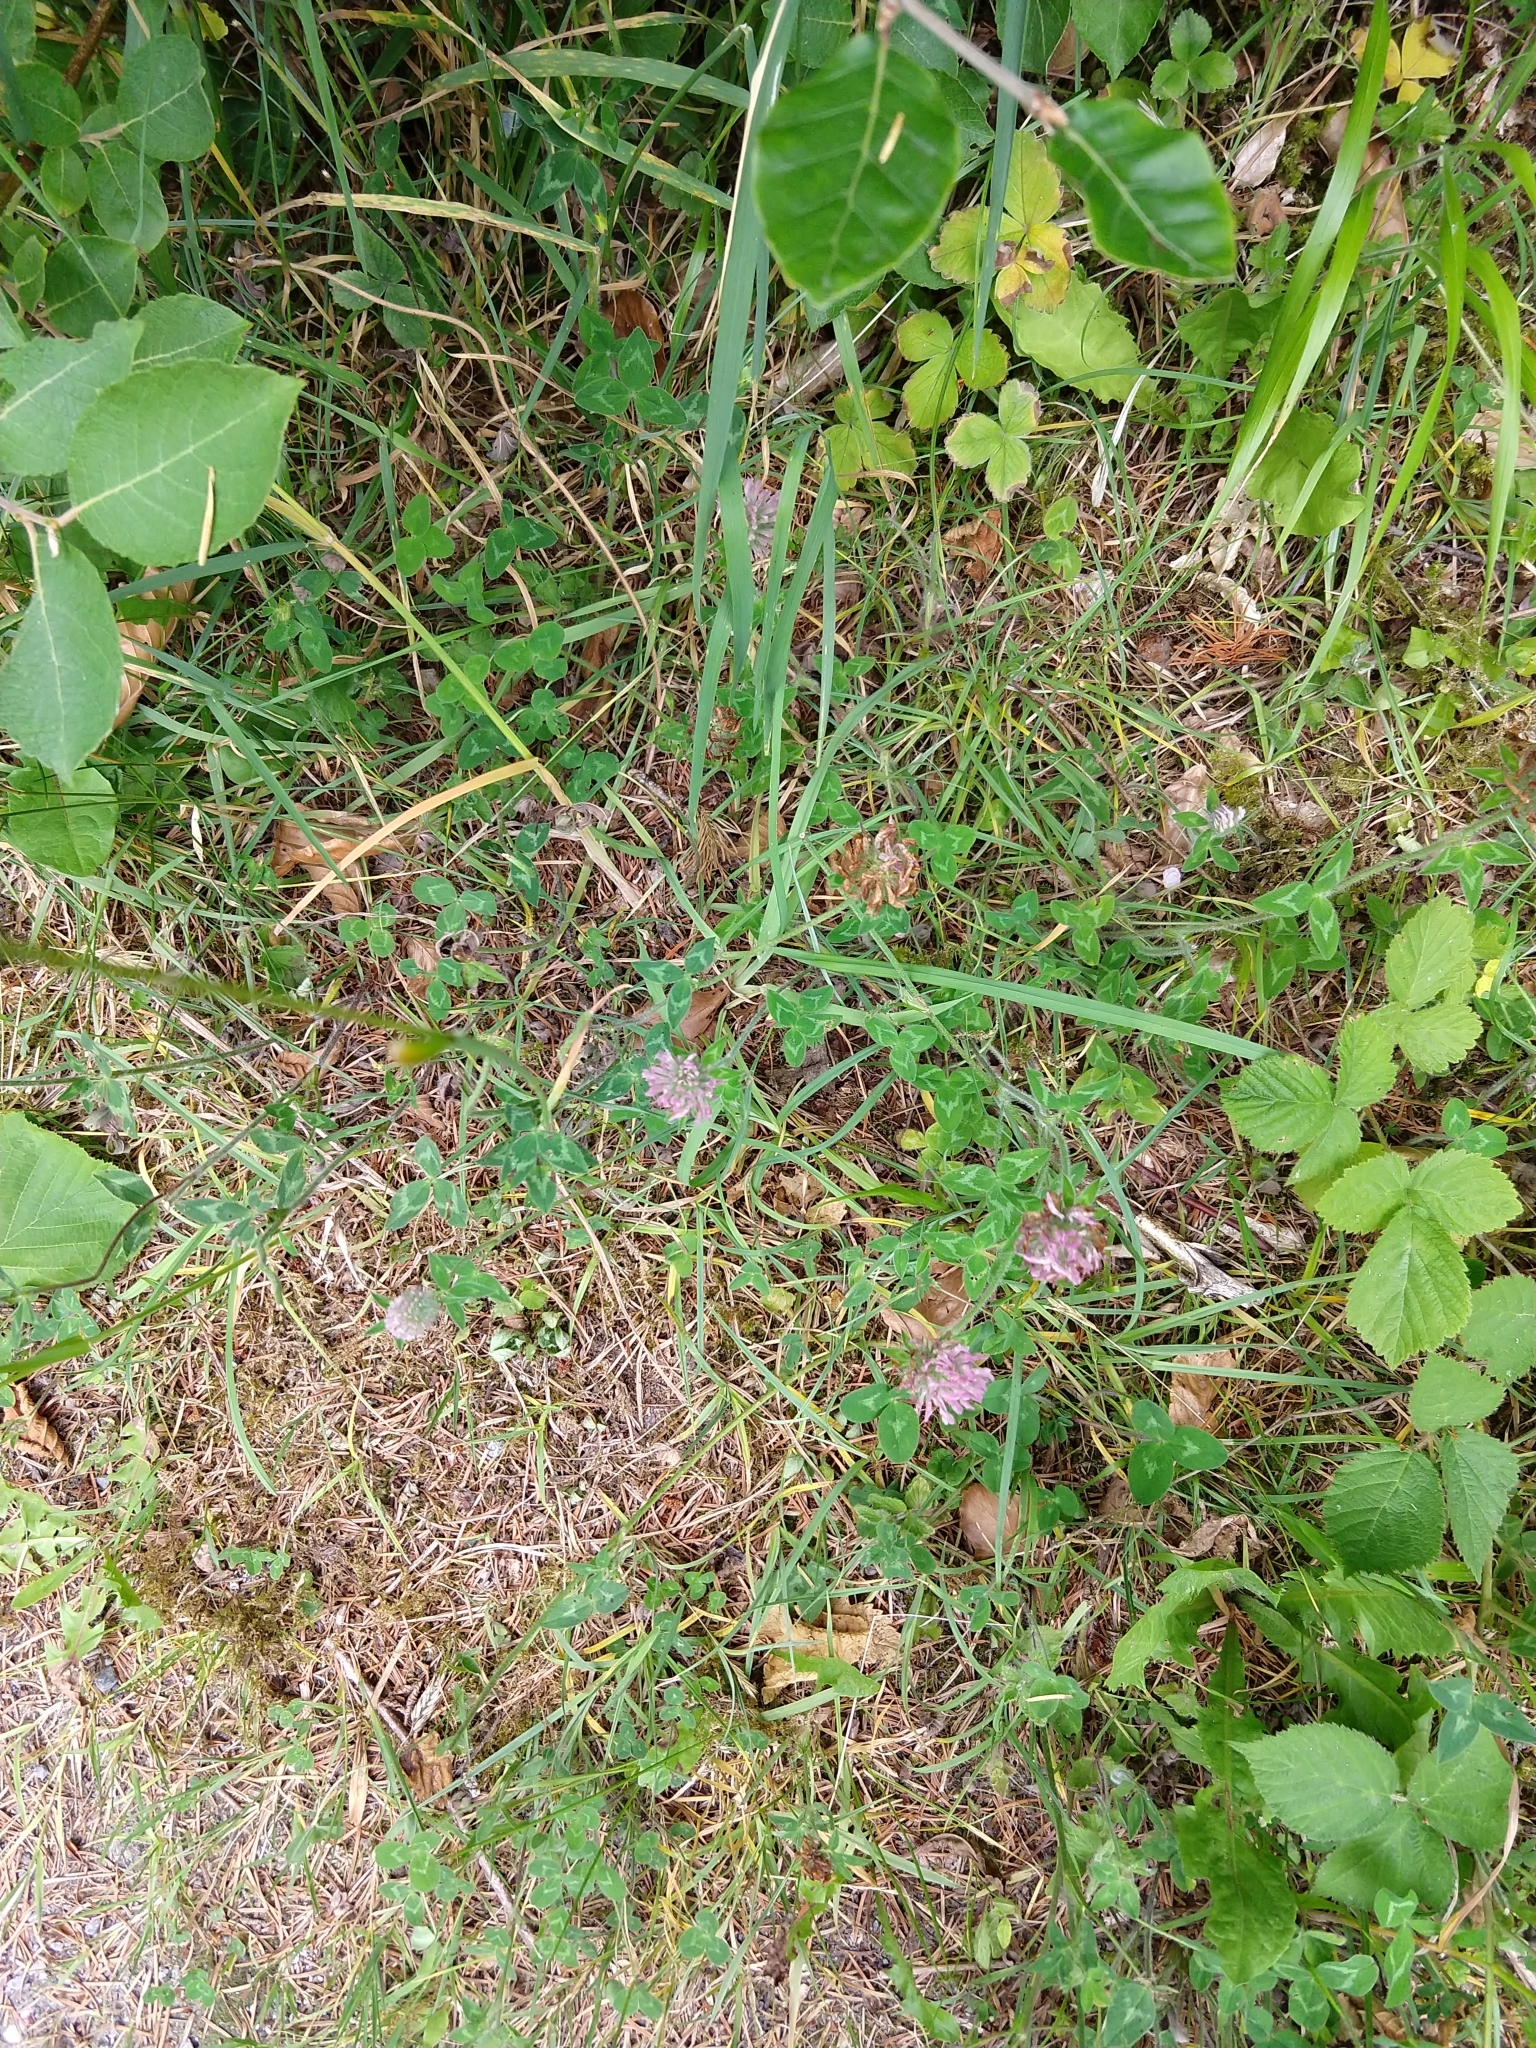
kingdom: Plantae
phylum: Tracheophyta
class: Magnoliopsida
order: Fabales
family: Fabaceae
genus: Trifolium
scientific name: Trifolium pratense
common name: Red clover
